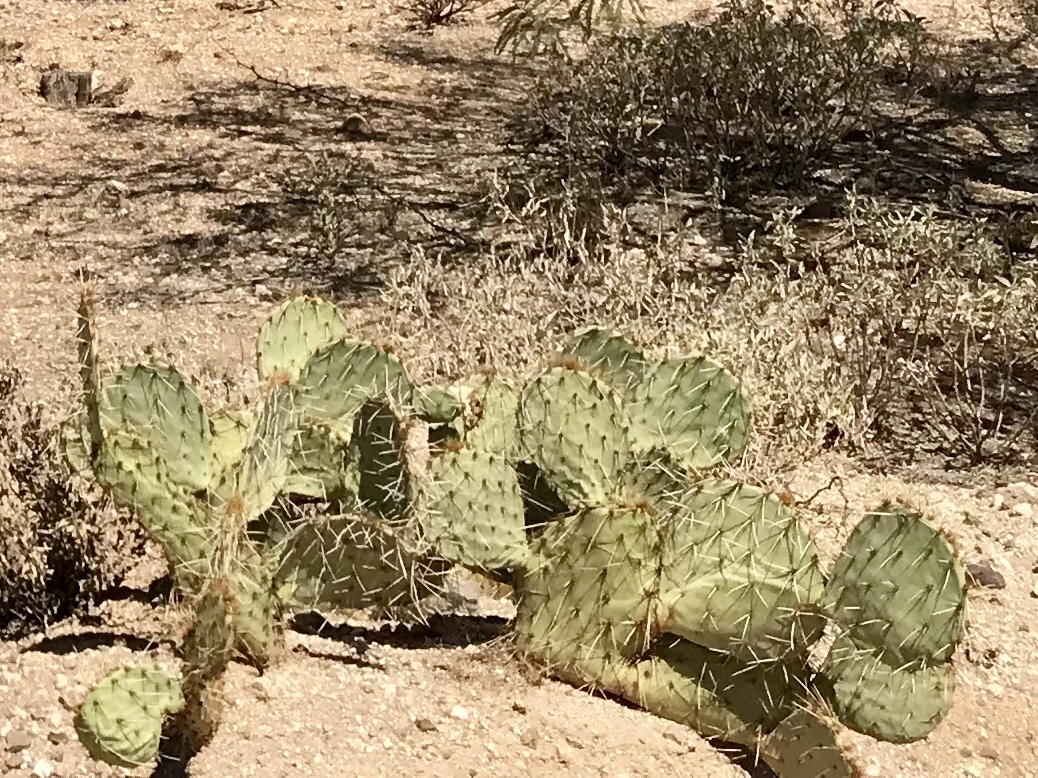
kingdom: Plantae
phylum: Tracheophyta
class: Magnoliopsida
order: Caryophyllales
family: Cactaceae
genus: Opuntia
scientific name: Opuntia engelmannii
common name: Cactus-apple
